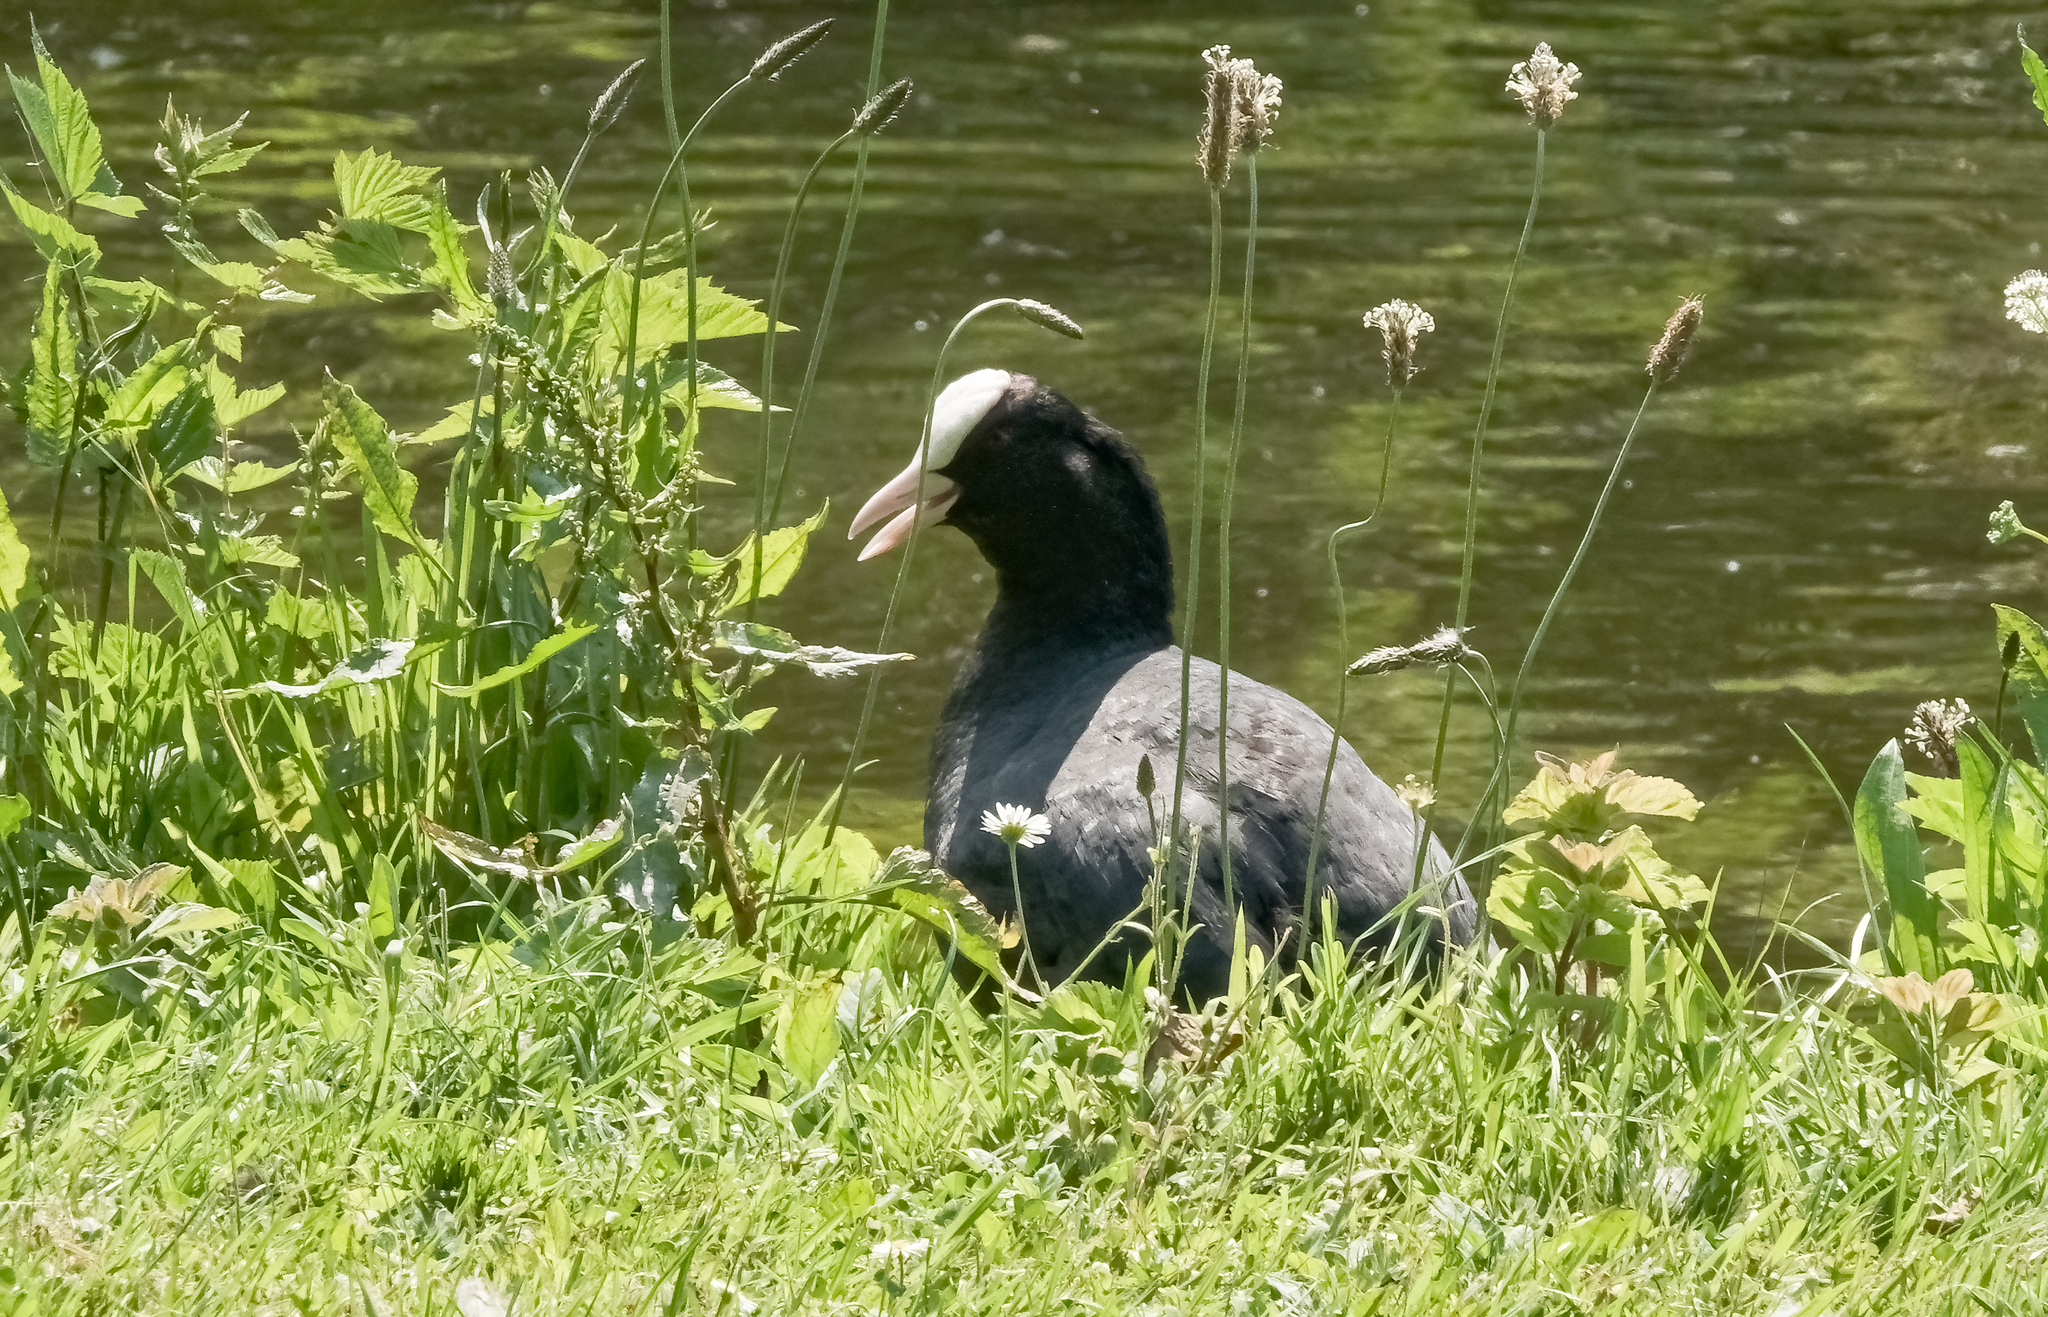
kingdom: Animalia
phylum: Chordata
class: Aves
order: Gruiformes
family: Rallidae
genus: Fulica
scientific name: Fulica atra
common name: Eurasian coot
